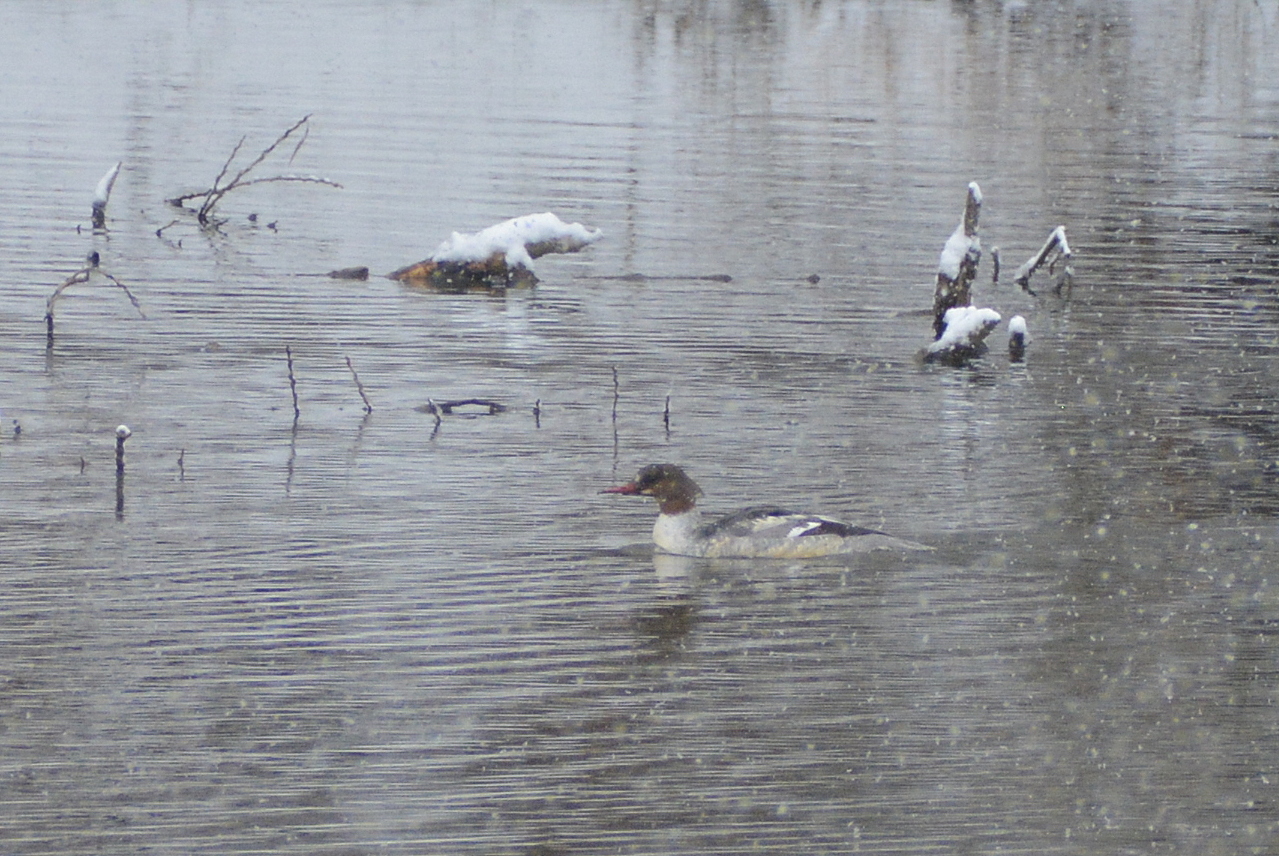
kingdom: Animalia
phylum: Chordata
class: Aves
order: Anseriformes
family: Anatidae
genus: Mergus
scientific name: Mergus merganser
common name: Common merganser
